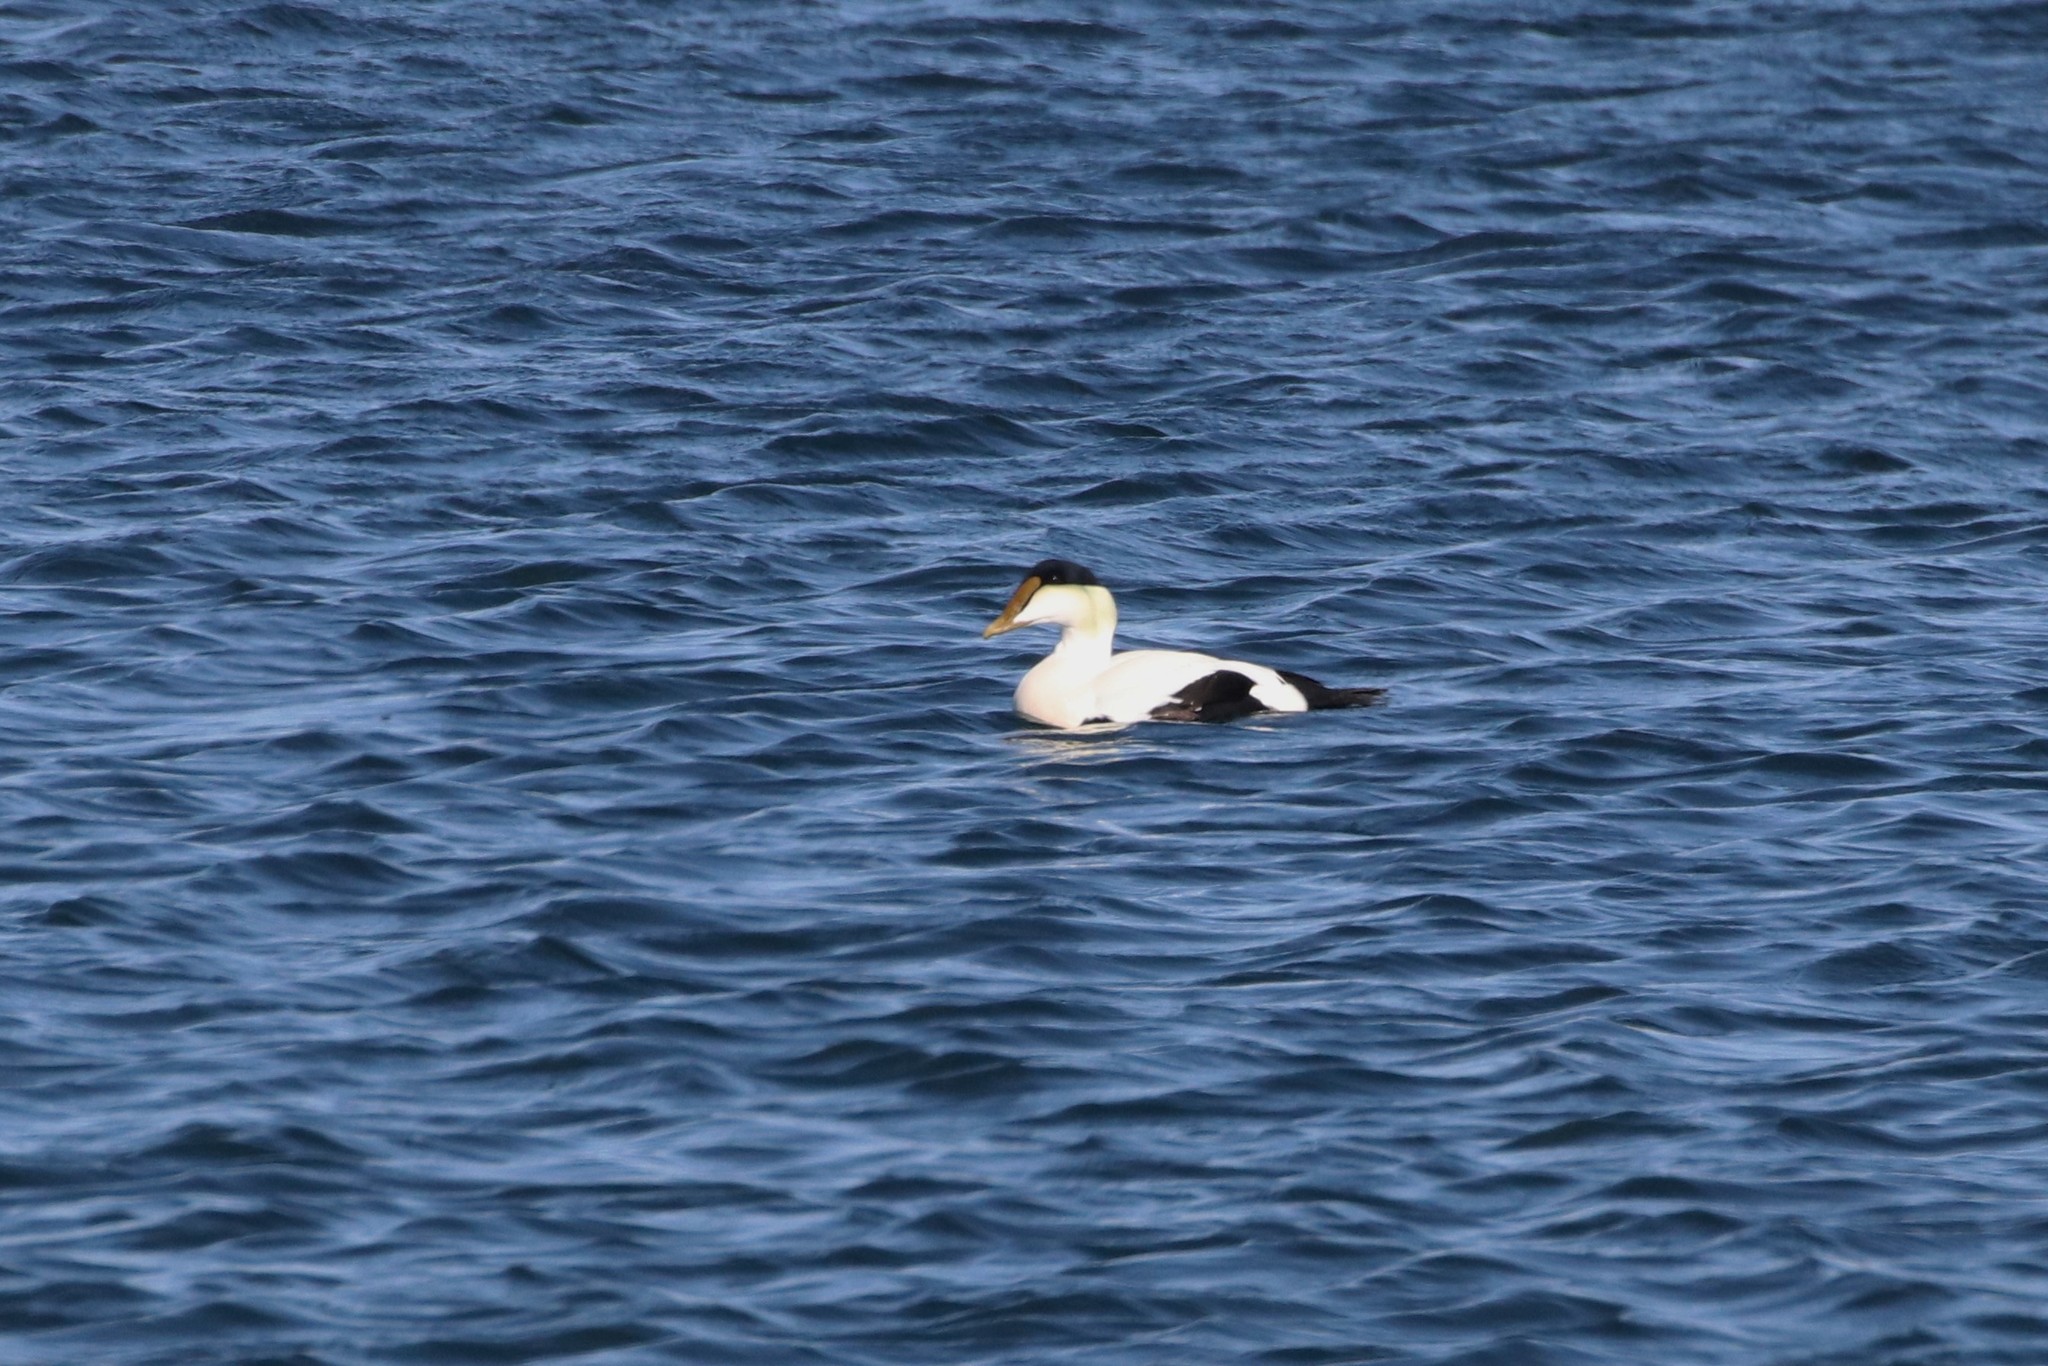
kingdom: Animalia
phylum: Chordata
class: Aves
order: Anseriformes
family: Anatidae
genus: Somateria
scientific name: Somateria mollissima
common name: Common eider
